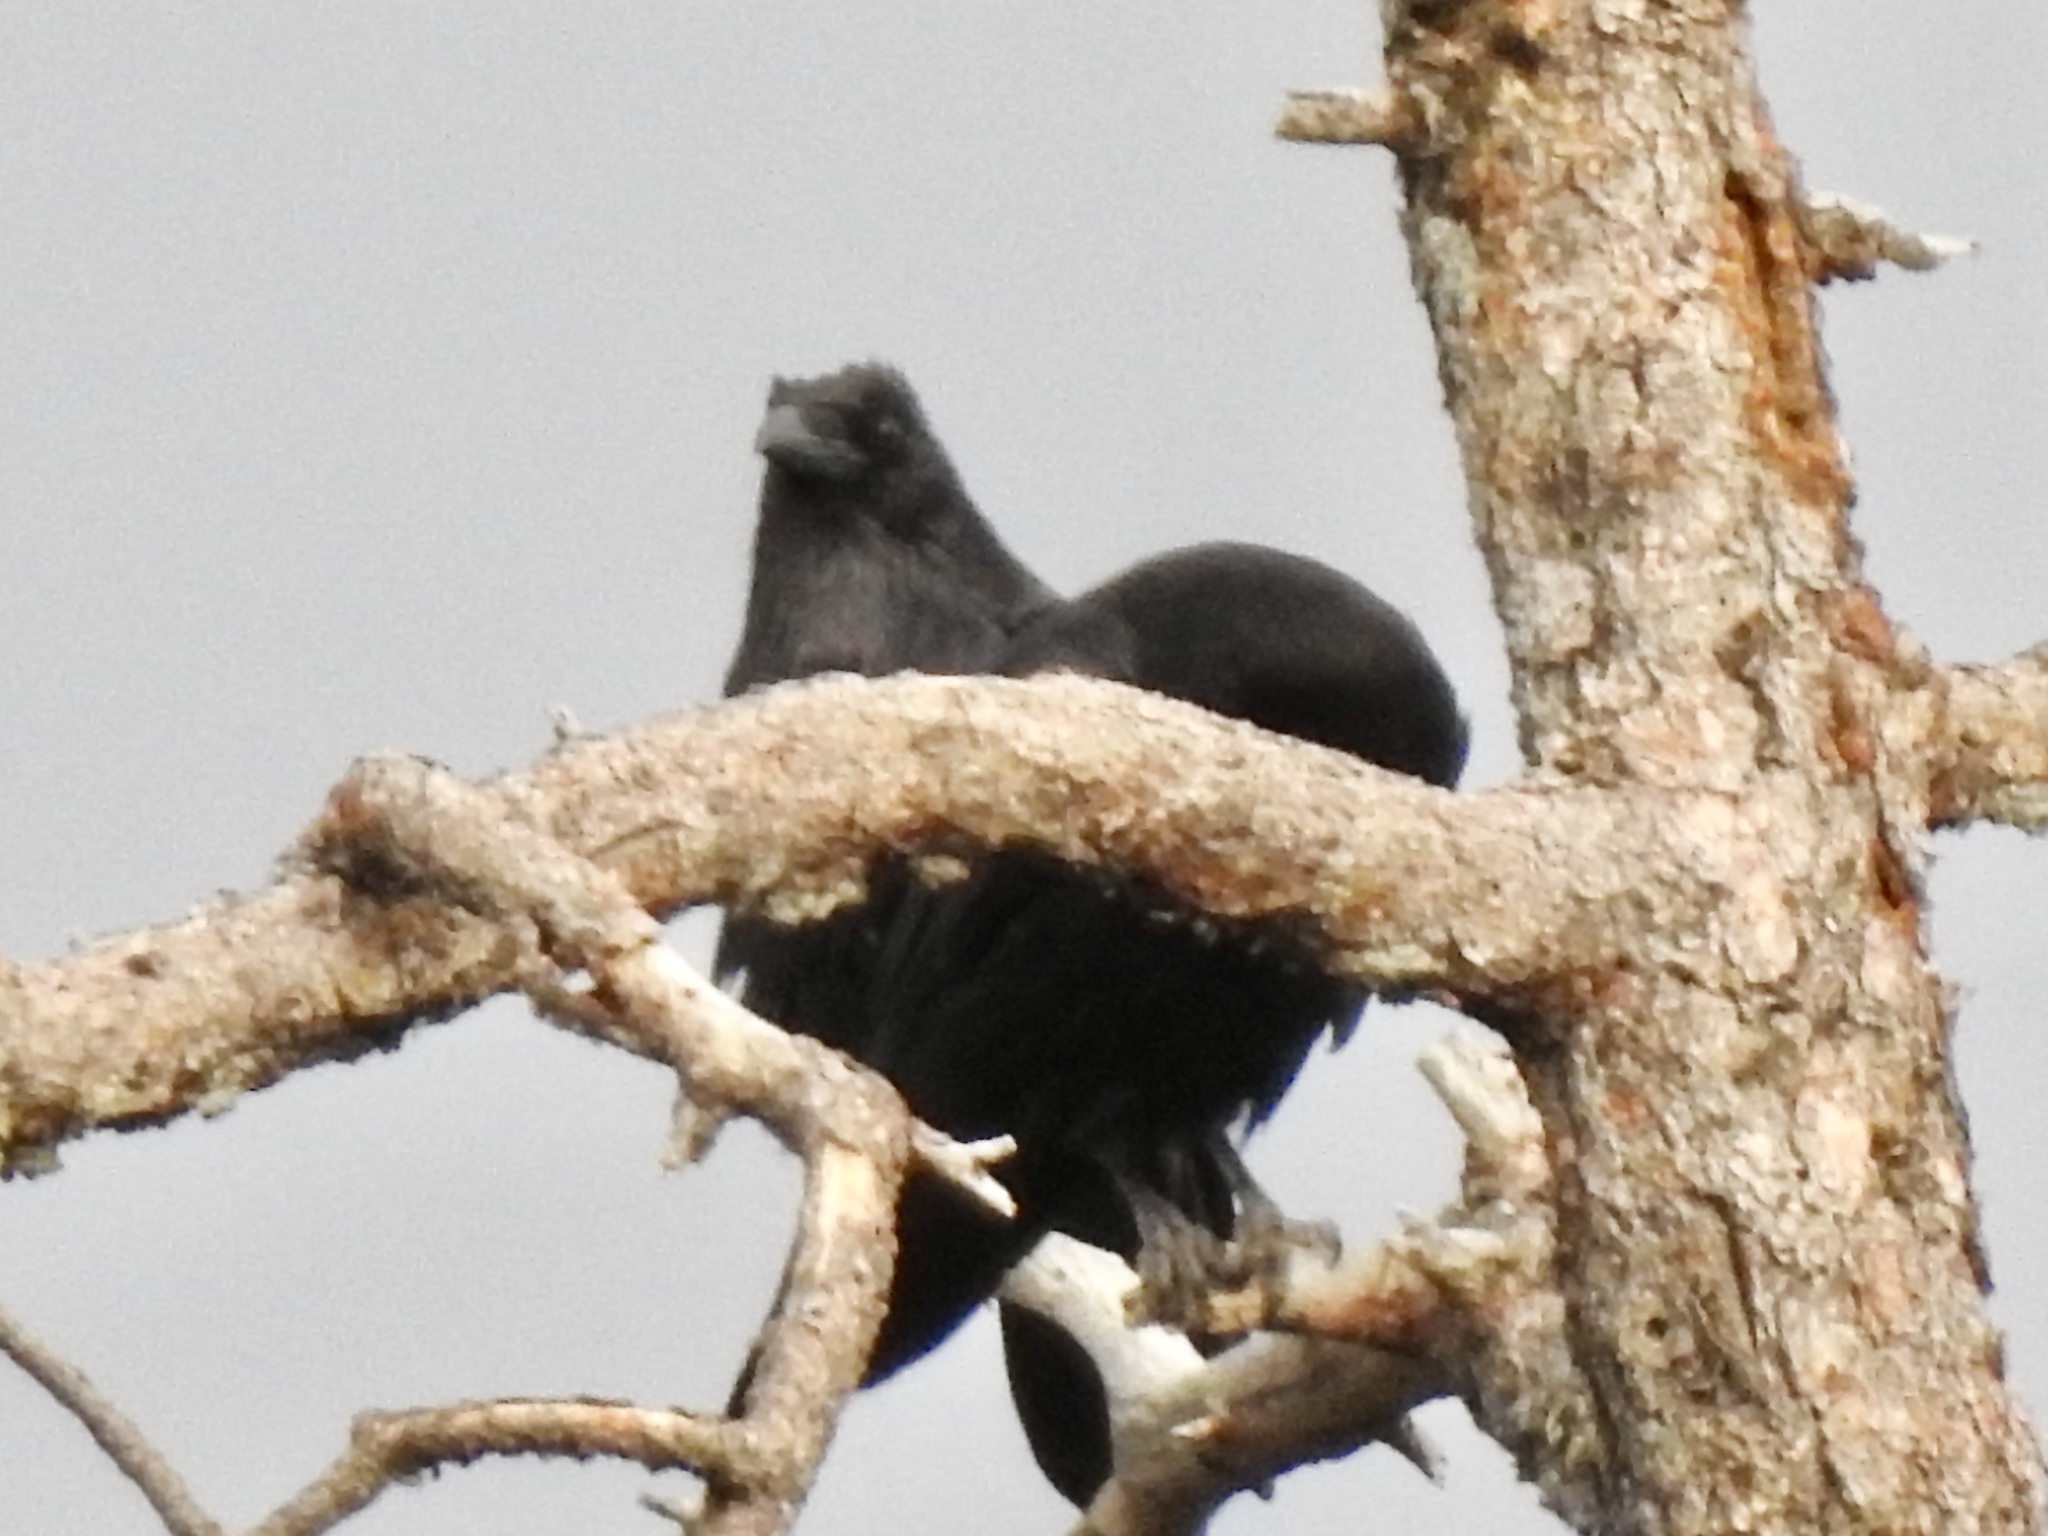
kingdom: Animalia
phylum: Chordata
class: Aves
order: Passeriformes
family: Corvidae
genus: Corvus
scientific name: Corvus corax
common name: Common raven
